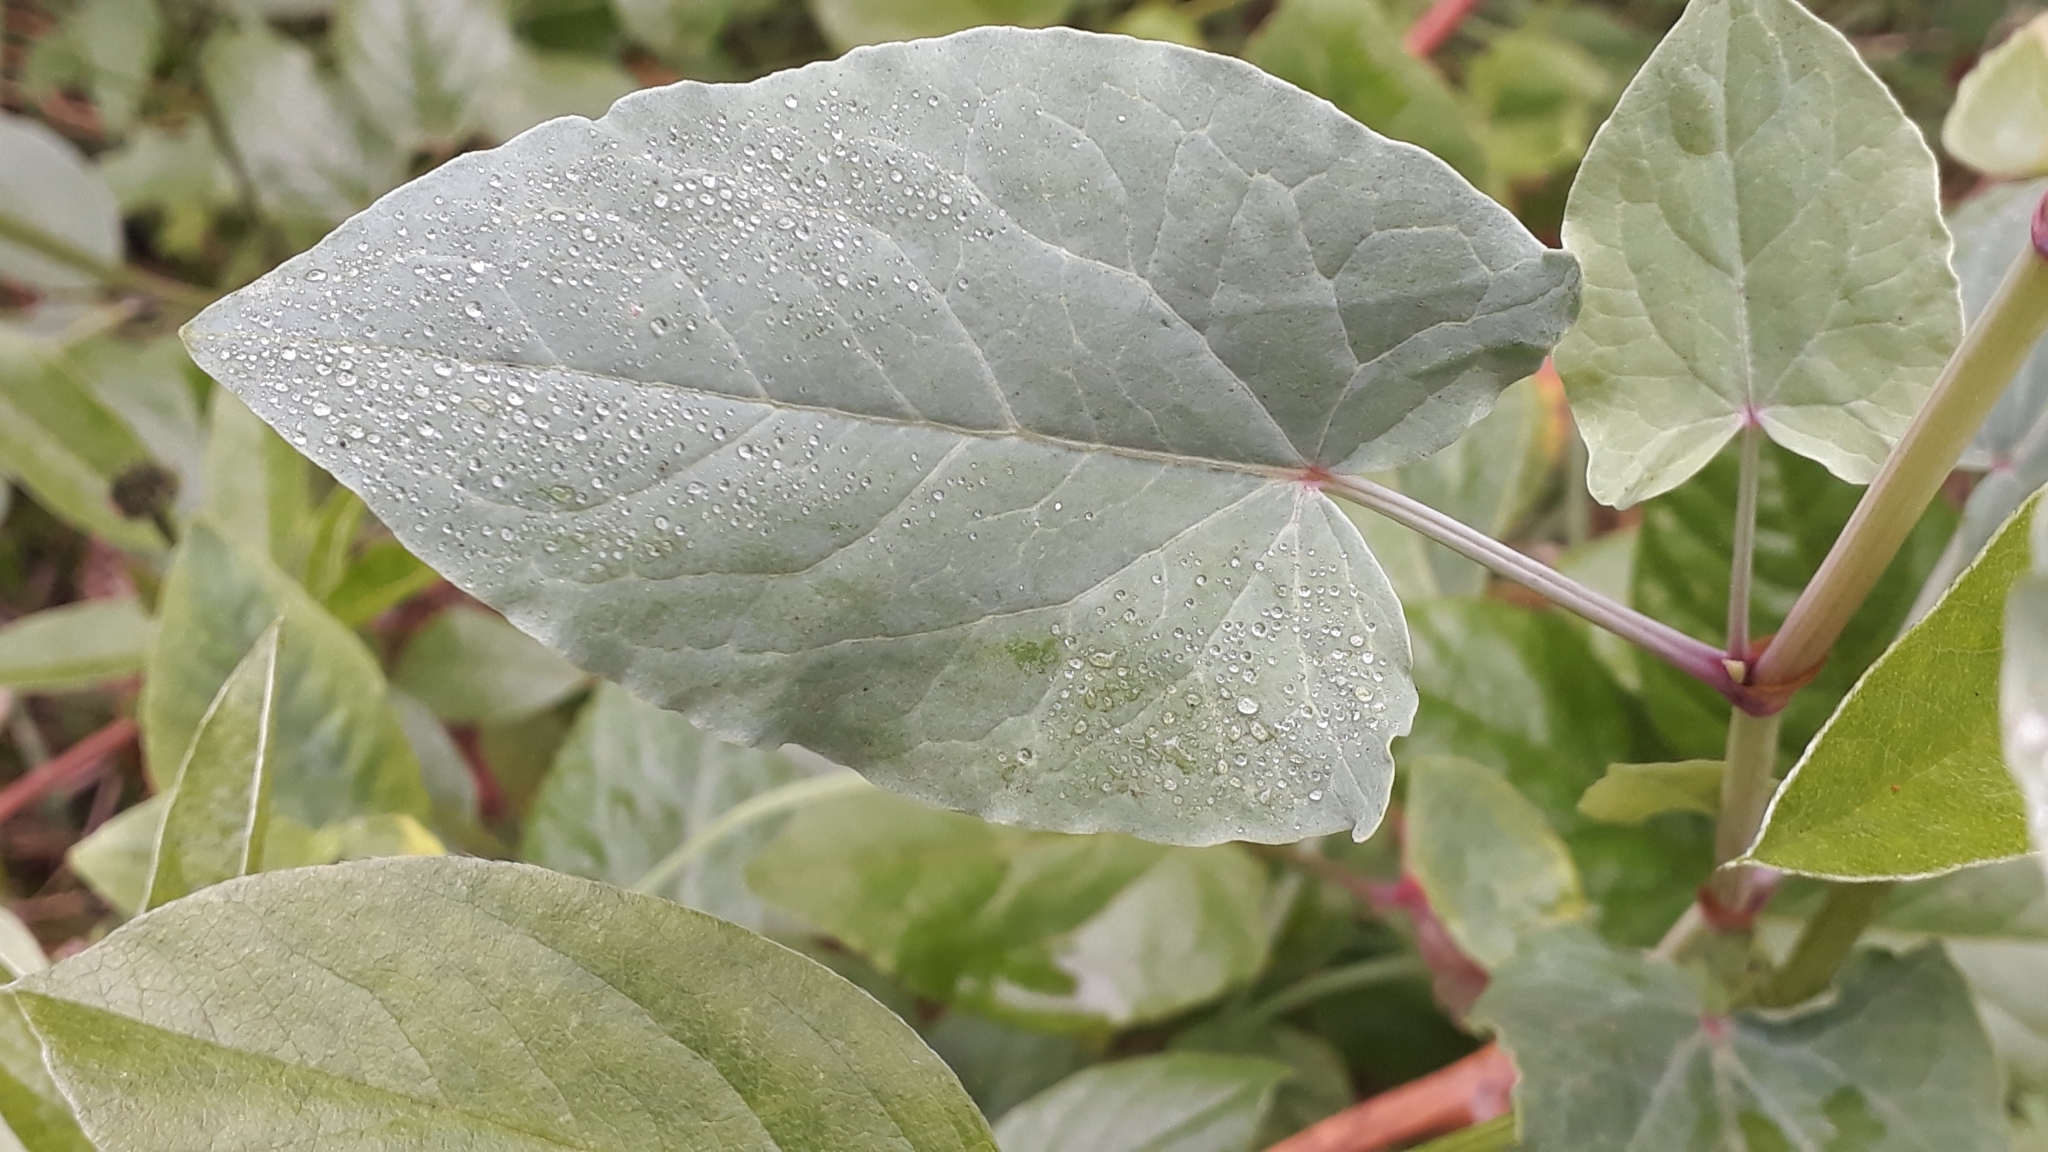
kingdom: Plantae
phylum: Tracheophyta
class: Magnoliopsida
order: Caryophyllales
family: Polygonaceae
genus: Rumex
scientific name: Rumex maderensis
